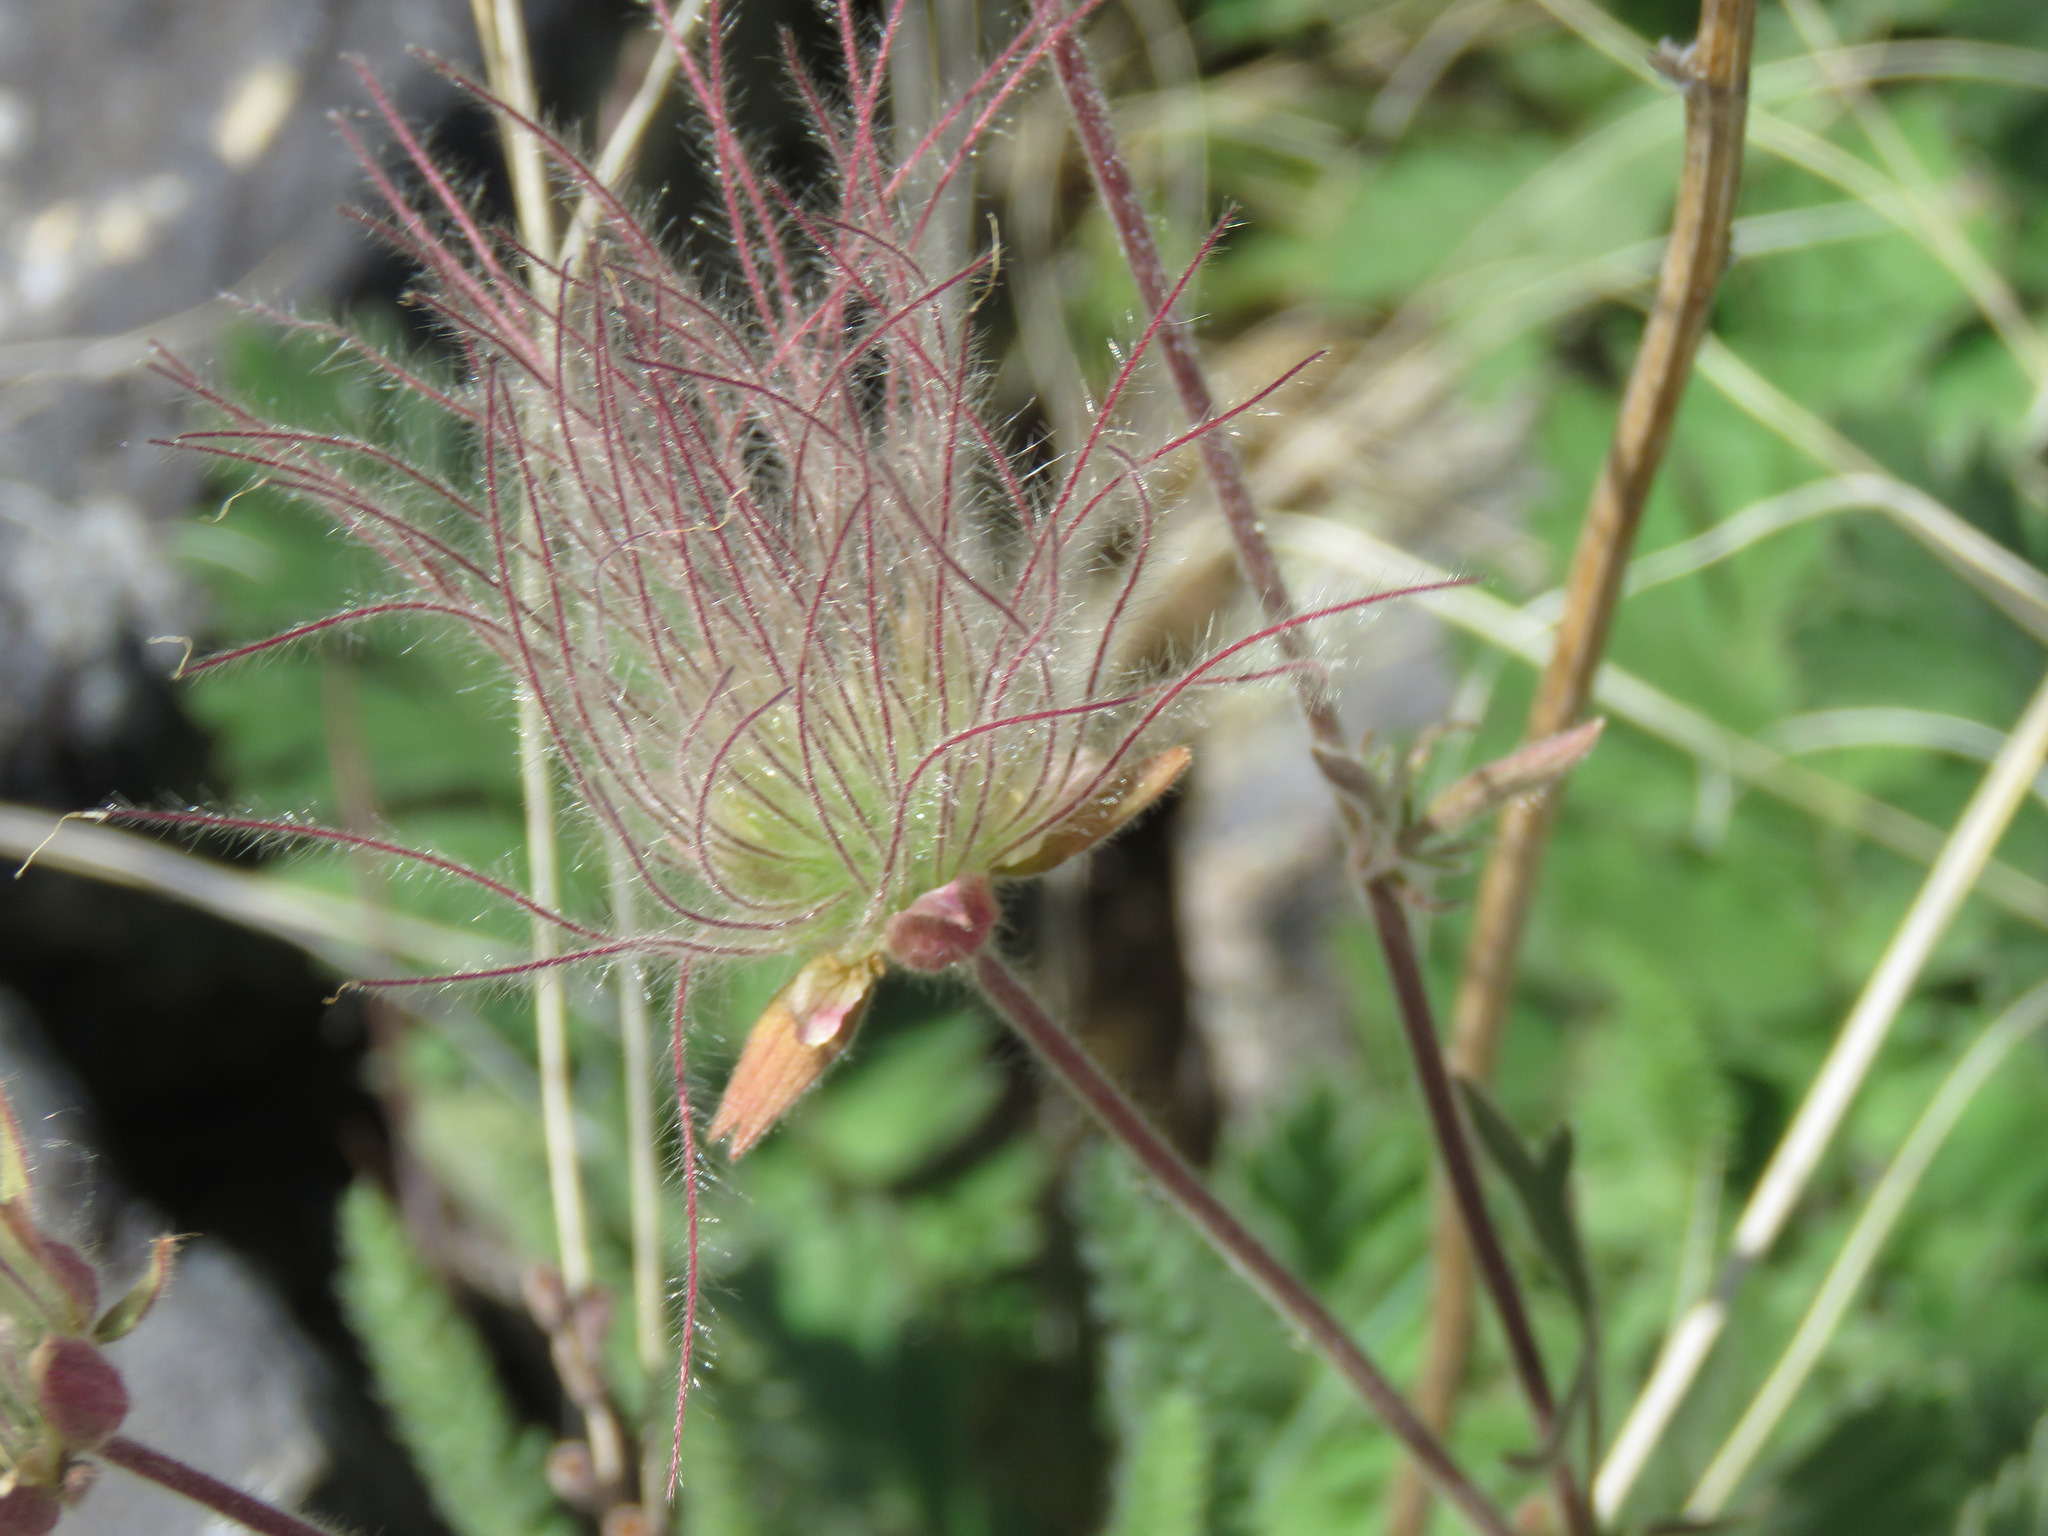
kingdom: Plantae
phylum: Tracheophyta
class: Magnoliopsida
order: Rosales
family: Rosaceae
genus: Geum
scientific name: Geum triflorum
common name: Old man's whiskers
